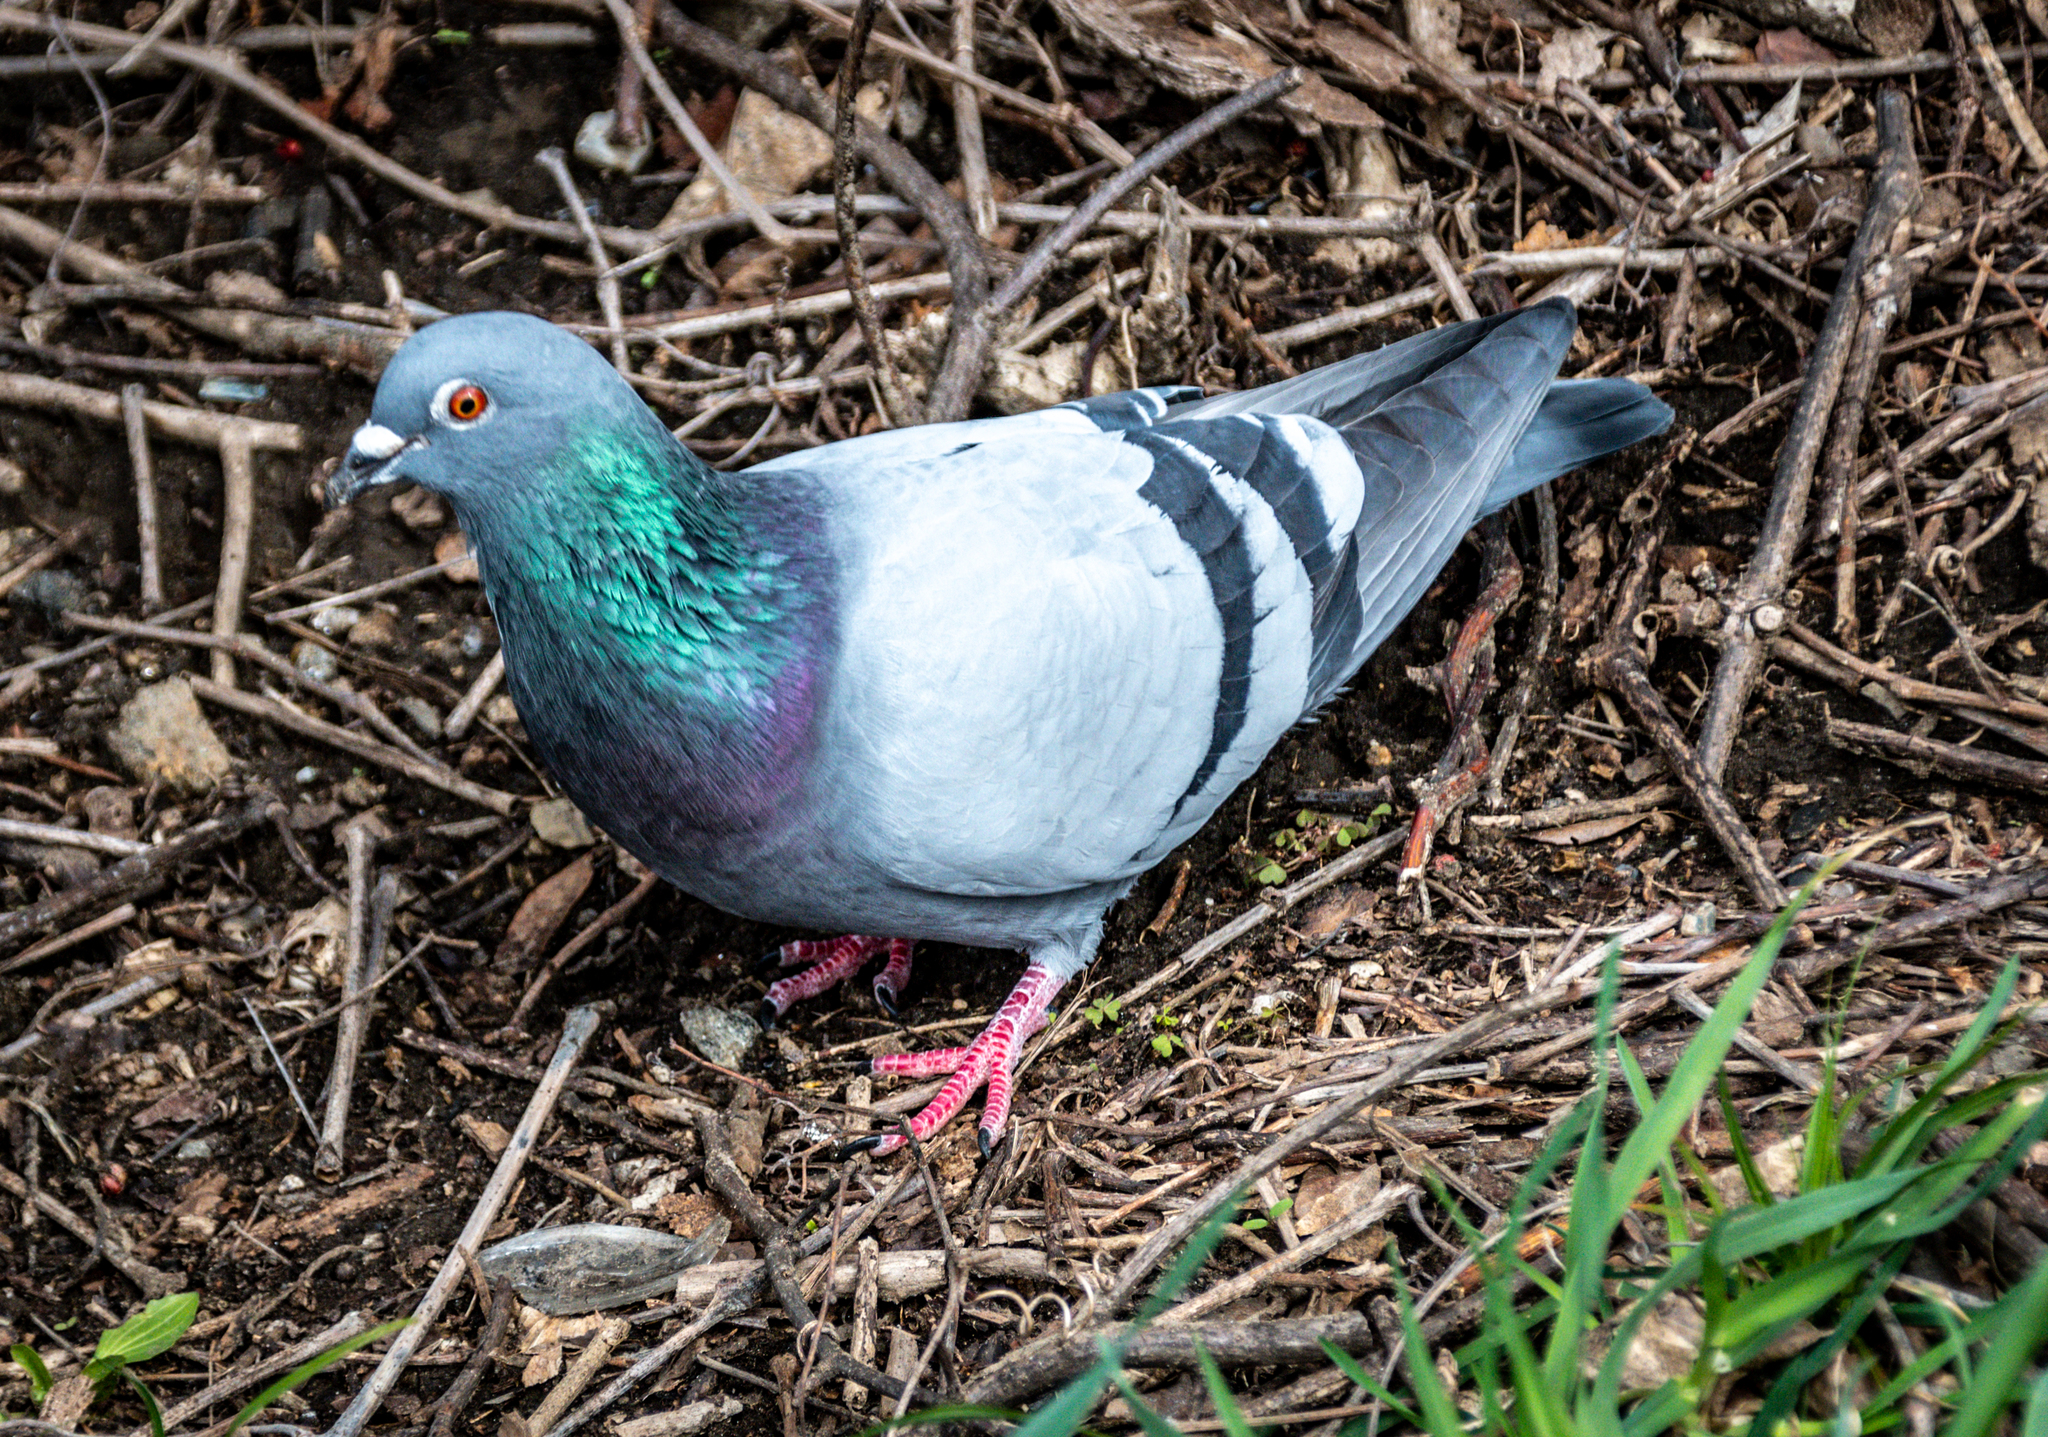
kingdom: Animalia
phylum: Chordata
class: Aves
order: Columbiformes
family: Columbidae
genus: Columba
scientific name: Columba livia
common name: Rock pigeon
